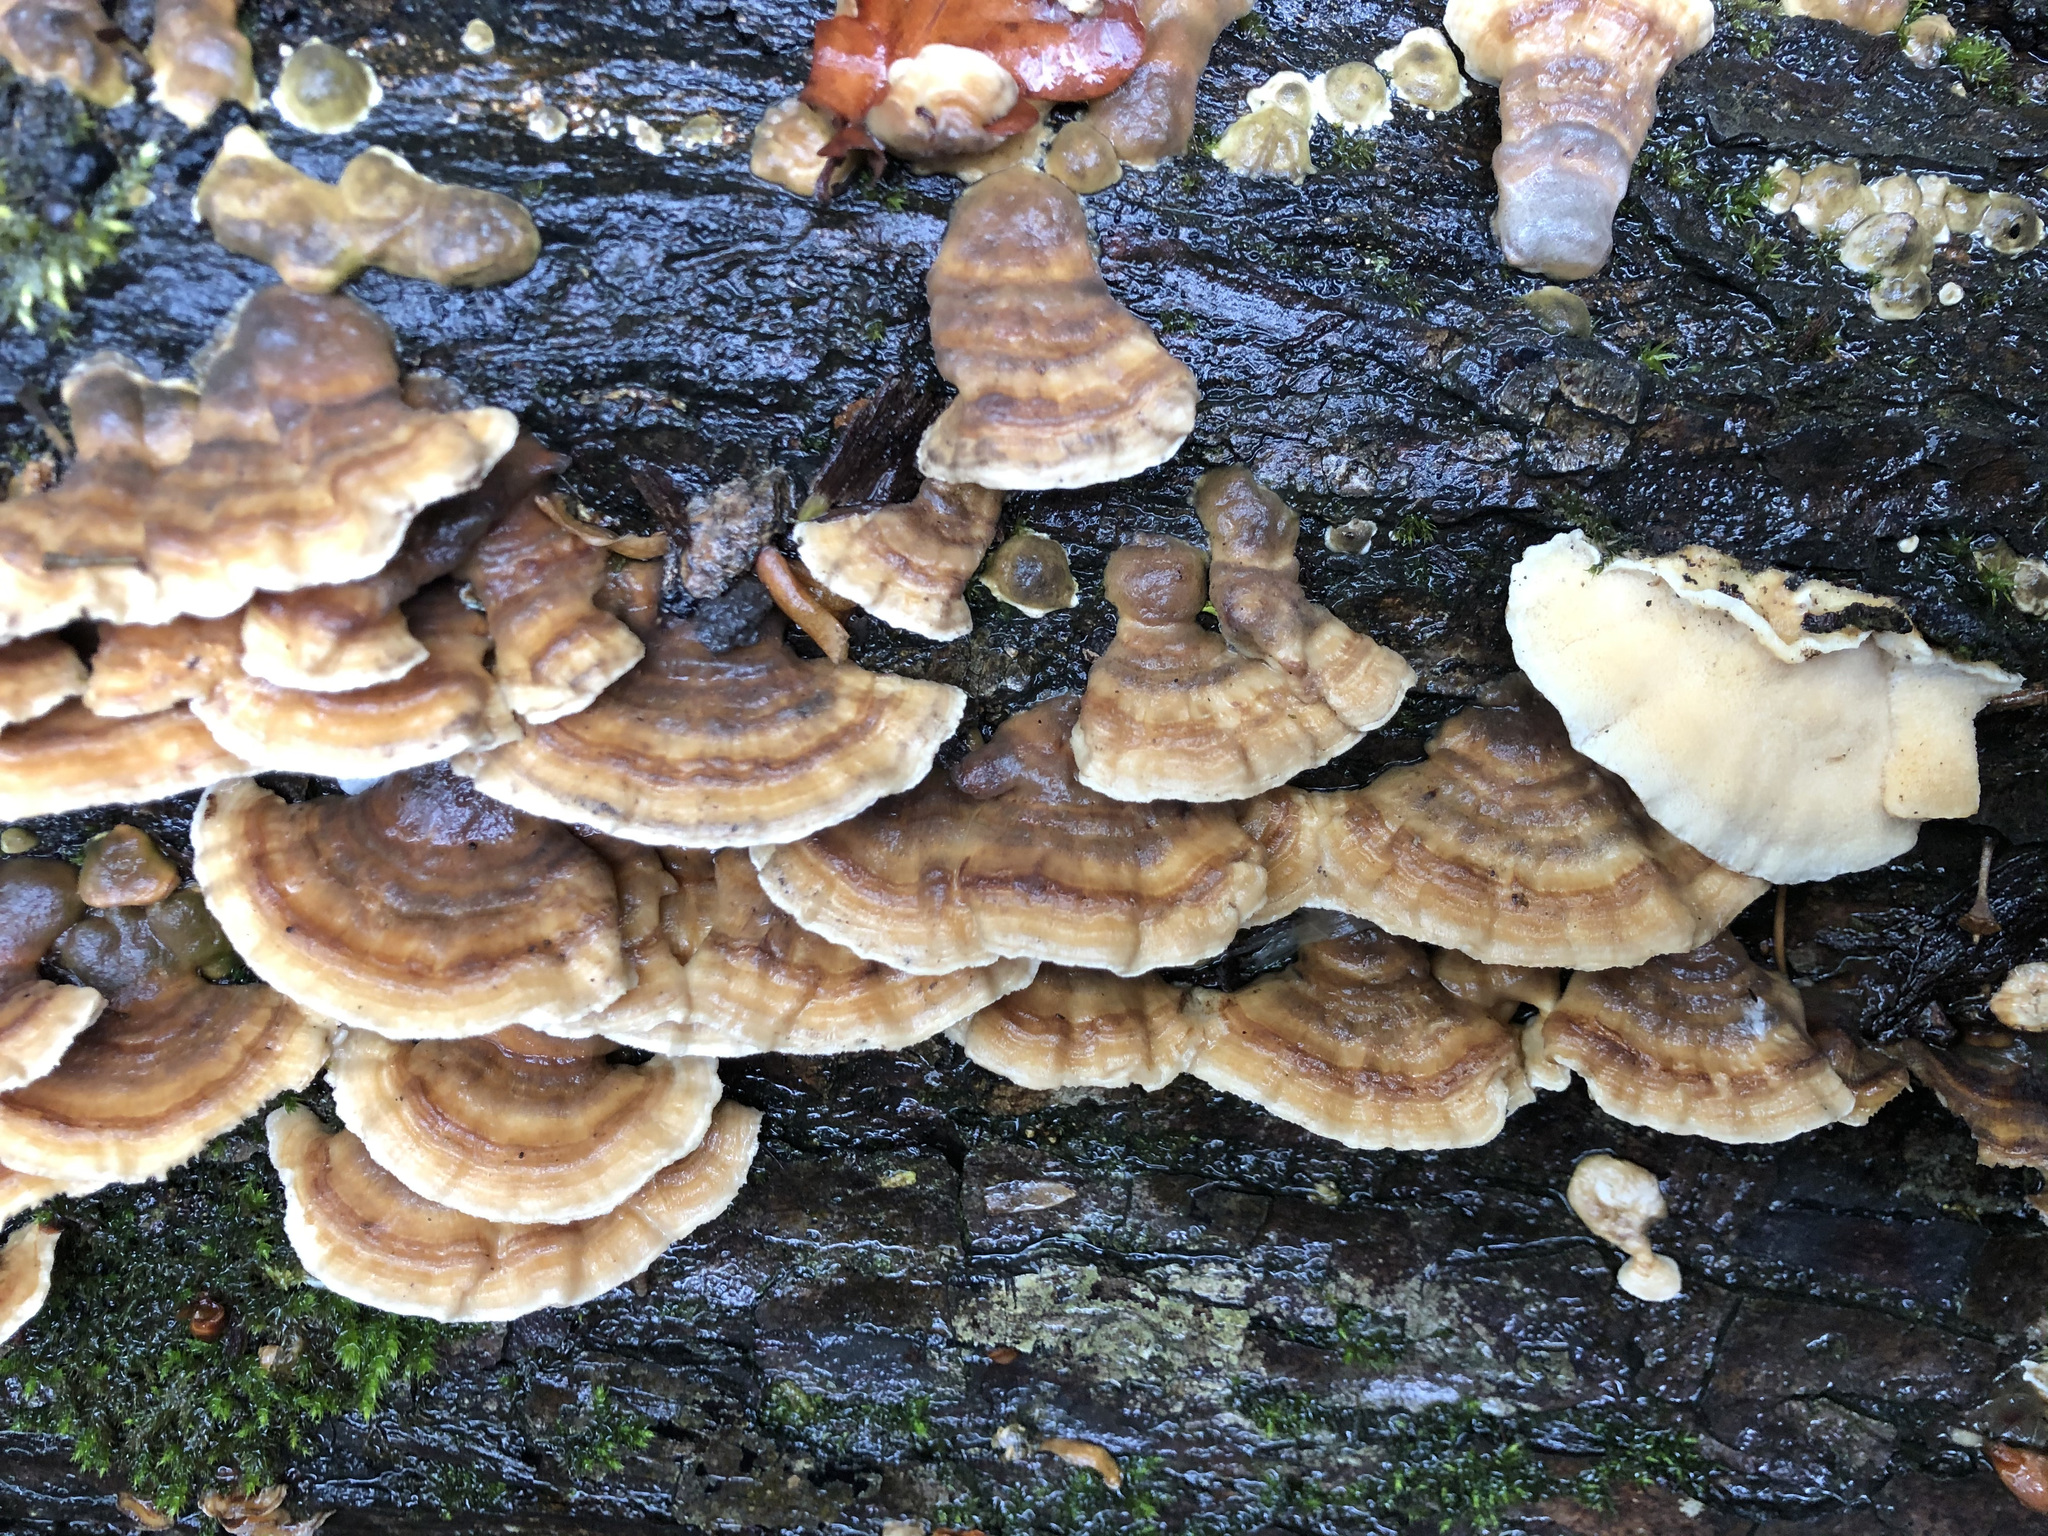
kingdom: Fungi
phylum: Basidiomycota
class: Agaricomycetes
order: Polyporales
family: Polyporaceae
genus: Trametes
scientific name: Trametes ochracea
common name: Ochre bracket
